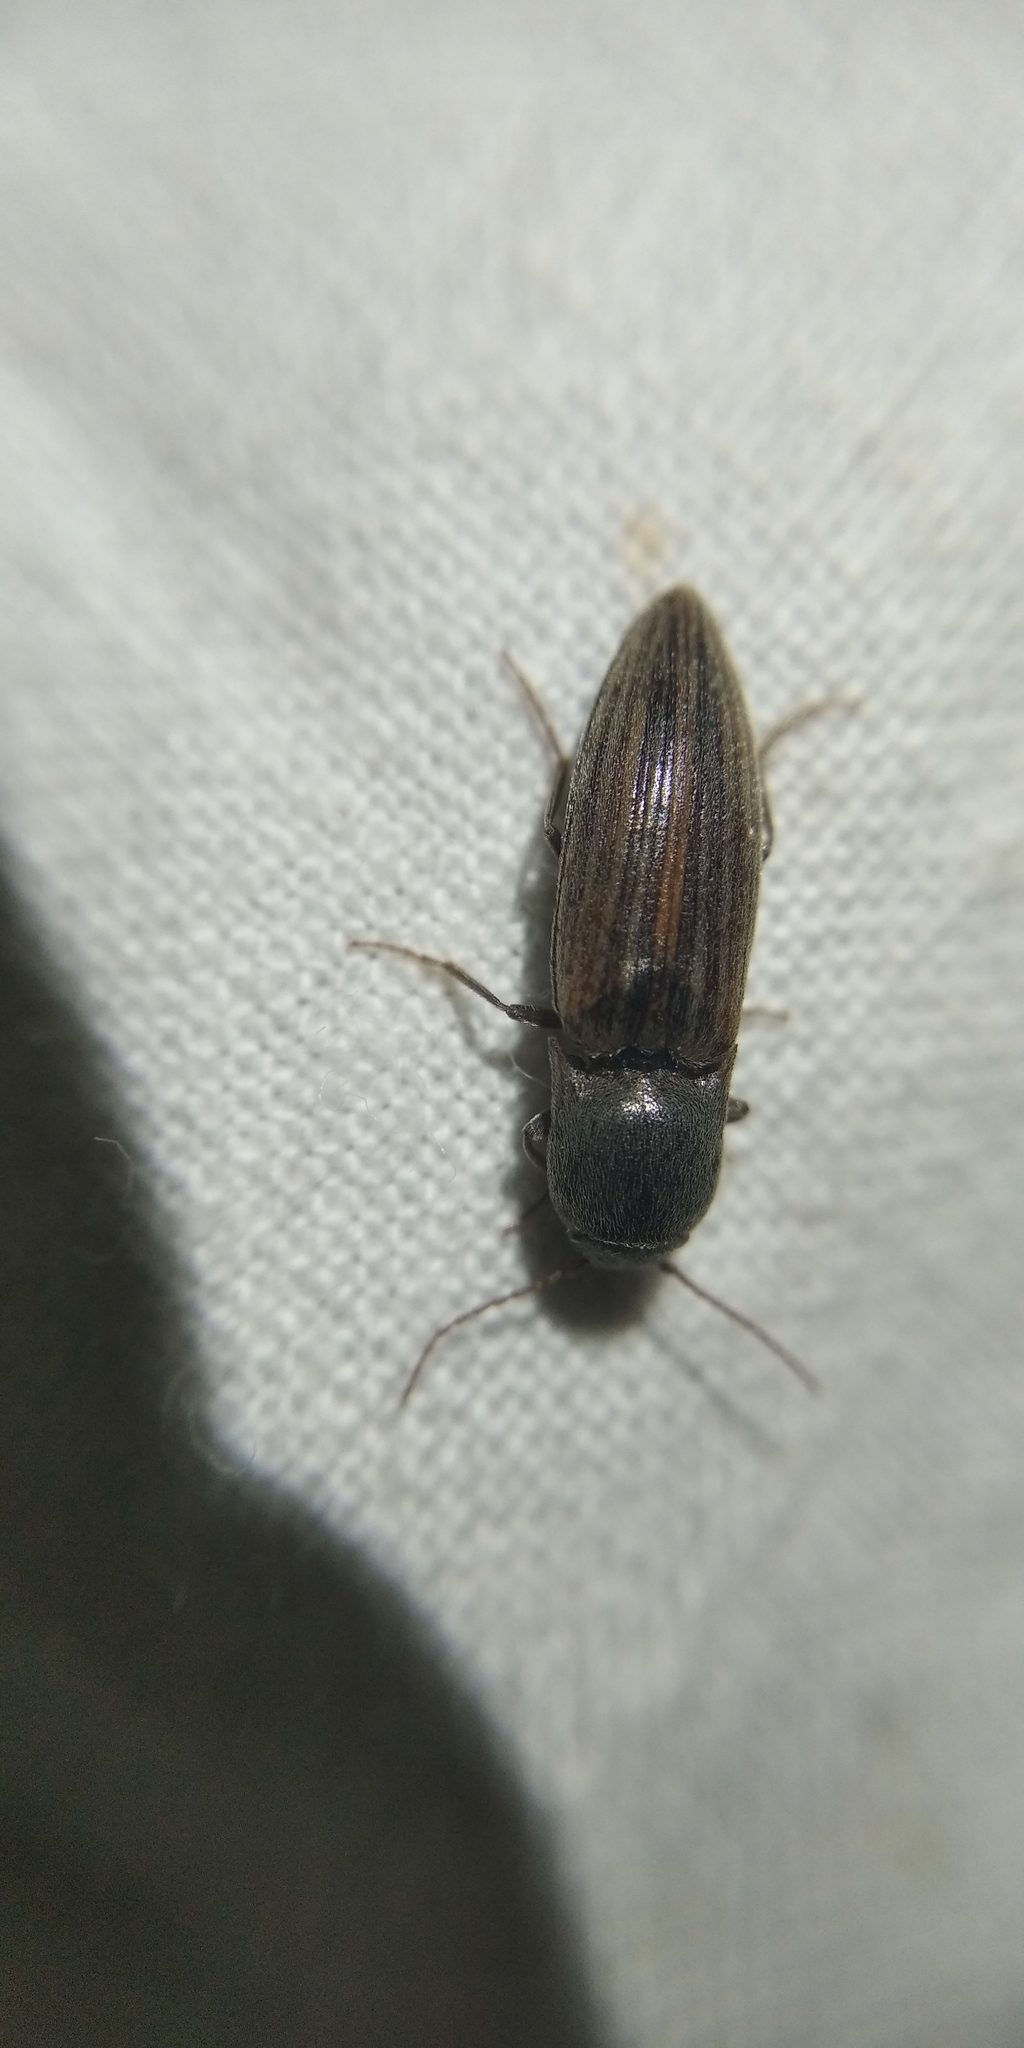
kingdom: Animalia
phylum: Arthropoda
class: Insecta
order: Coleoptera
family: Elateridae
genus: Agriotes
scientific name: Agriotes lineatus
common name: Lined click beetle
